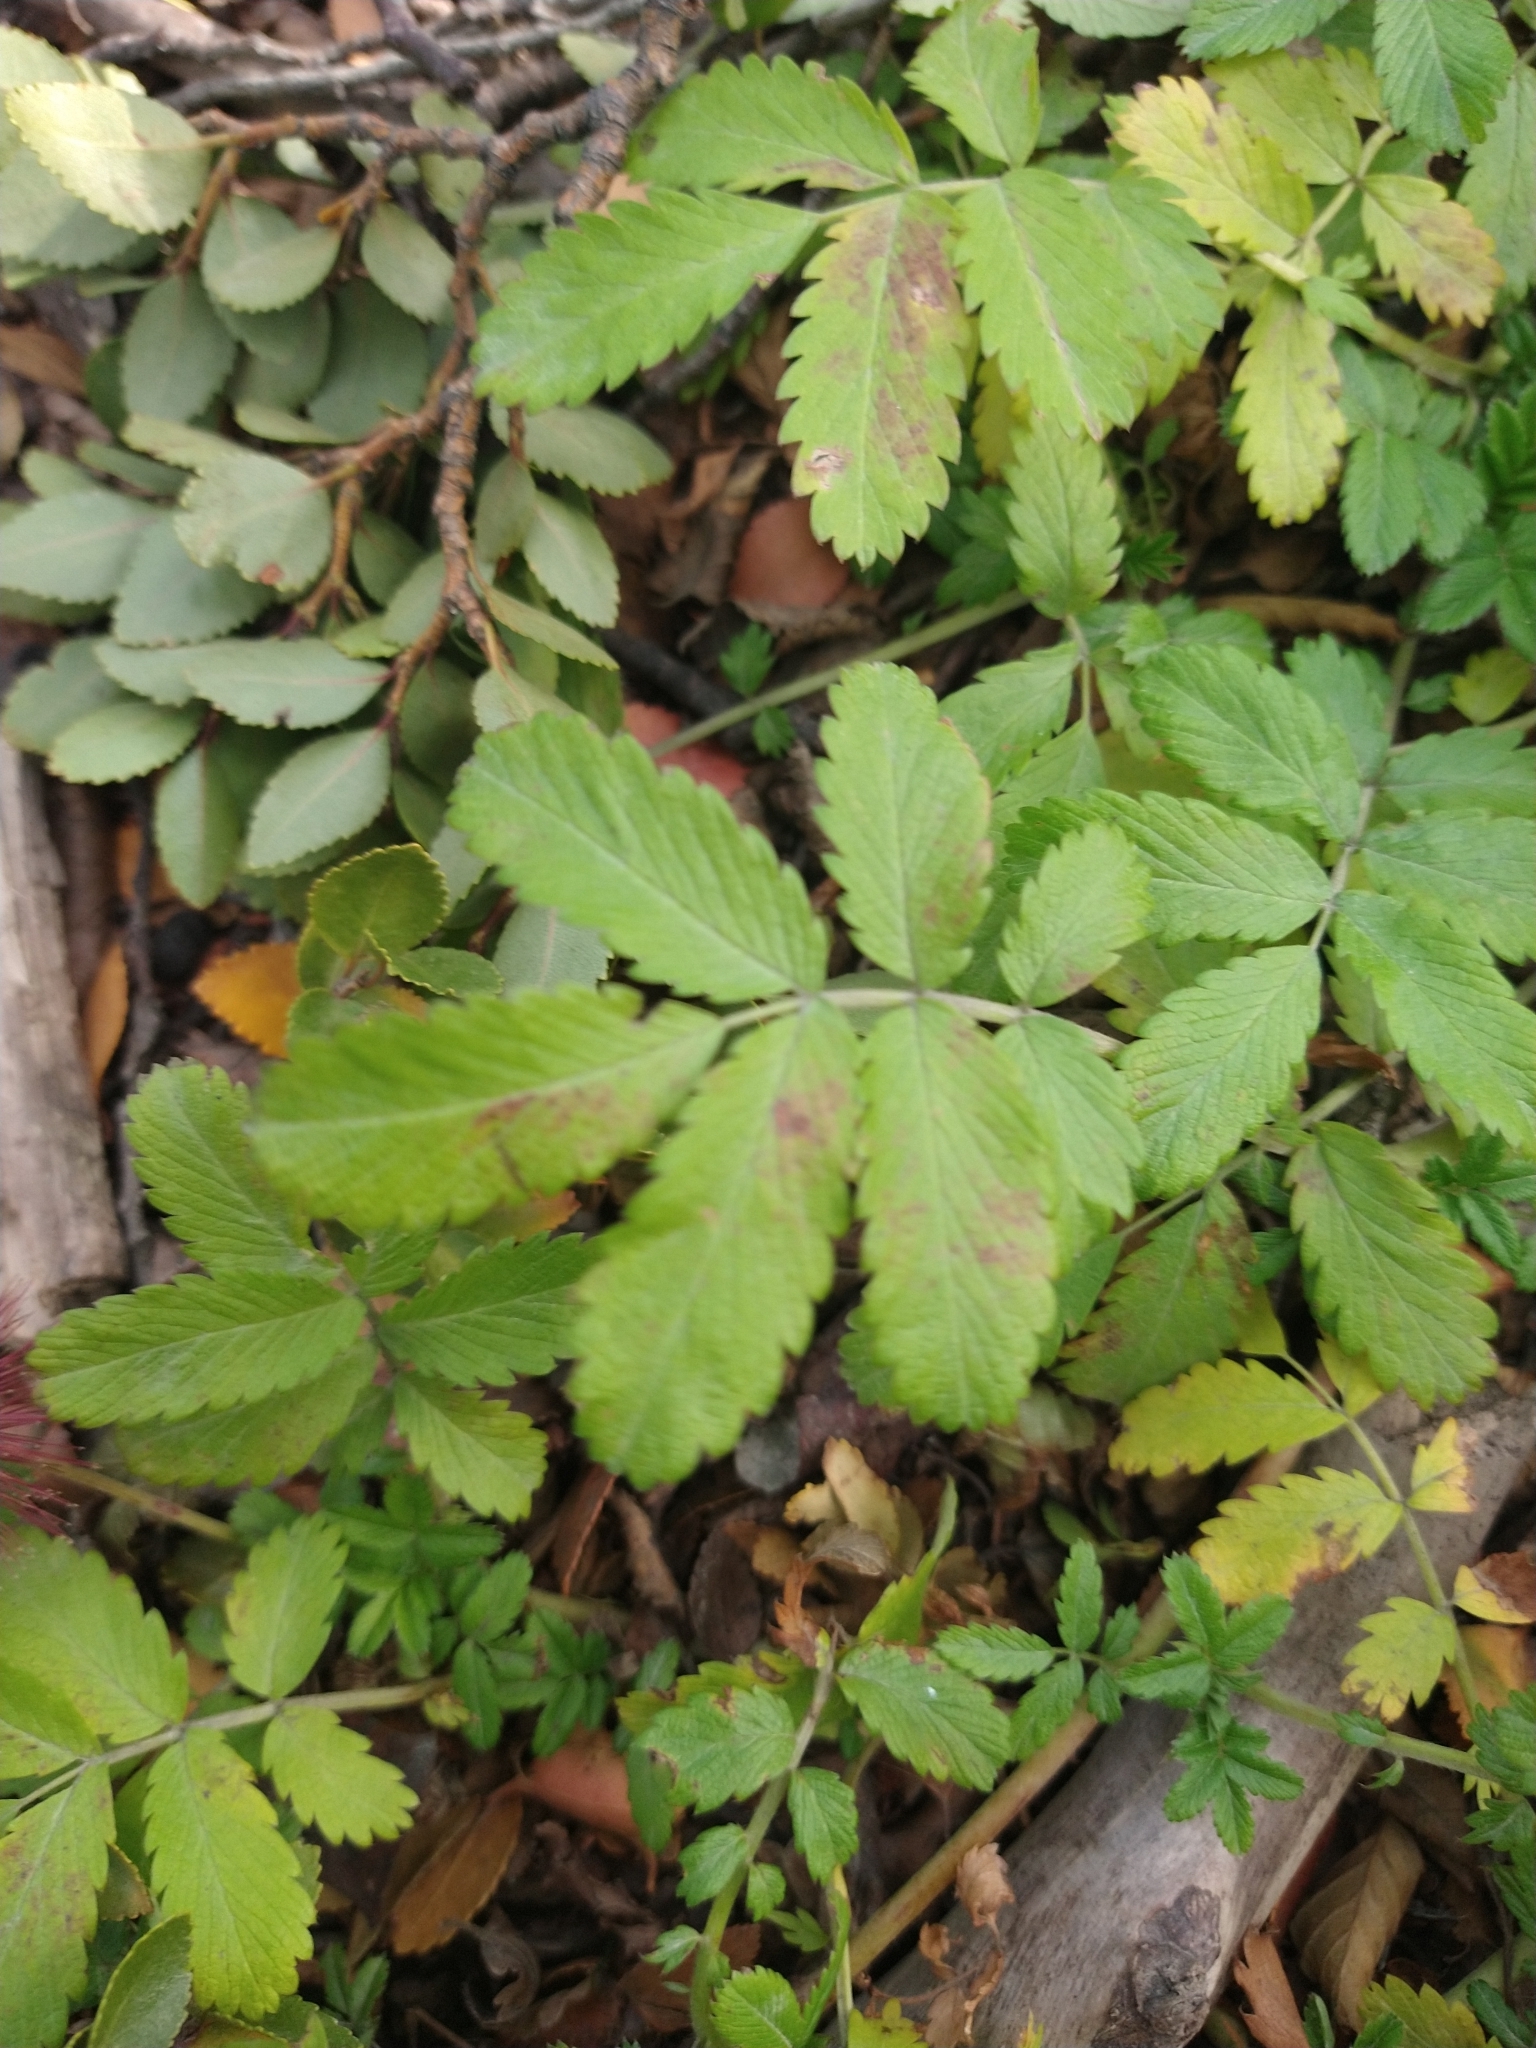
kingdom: Plantae
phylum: Tracheophyta
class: Magnoliopsida
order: Rosales
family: Rosaceae
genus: Acaena
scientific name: Acaena ovalifolia
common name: Two-spined acaena
